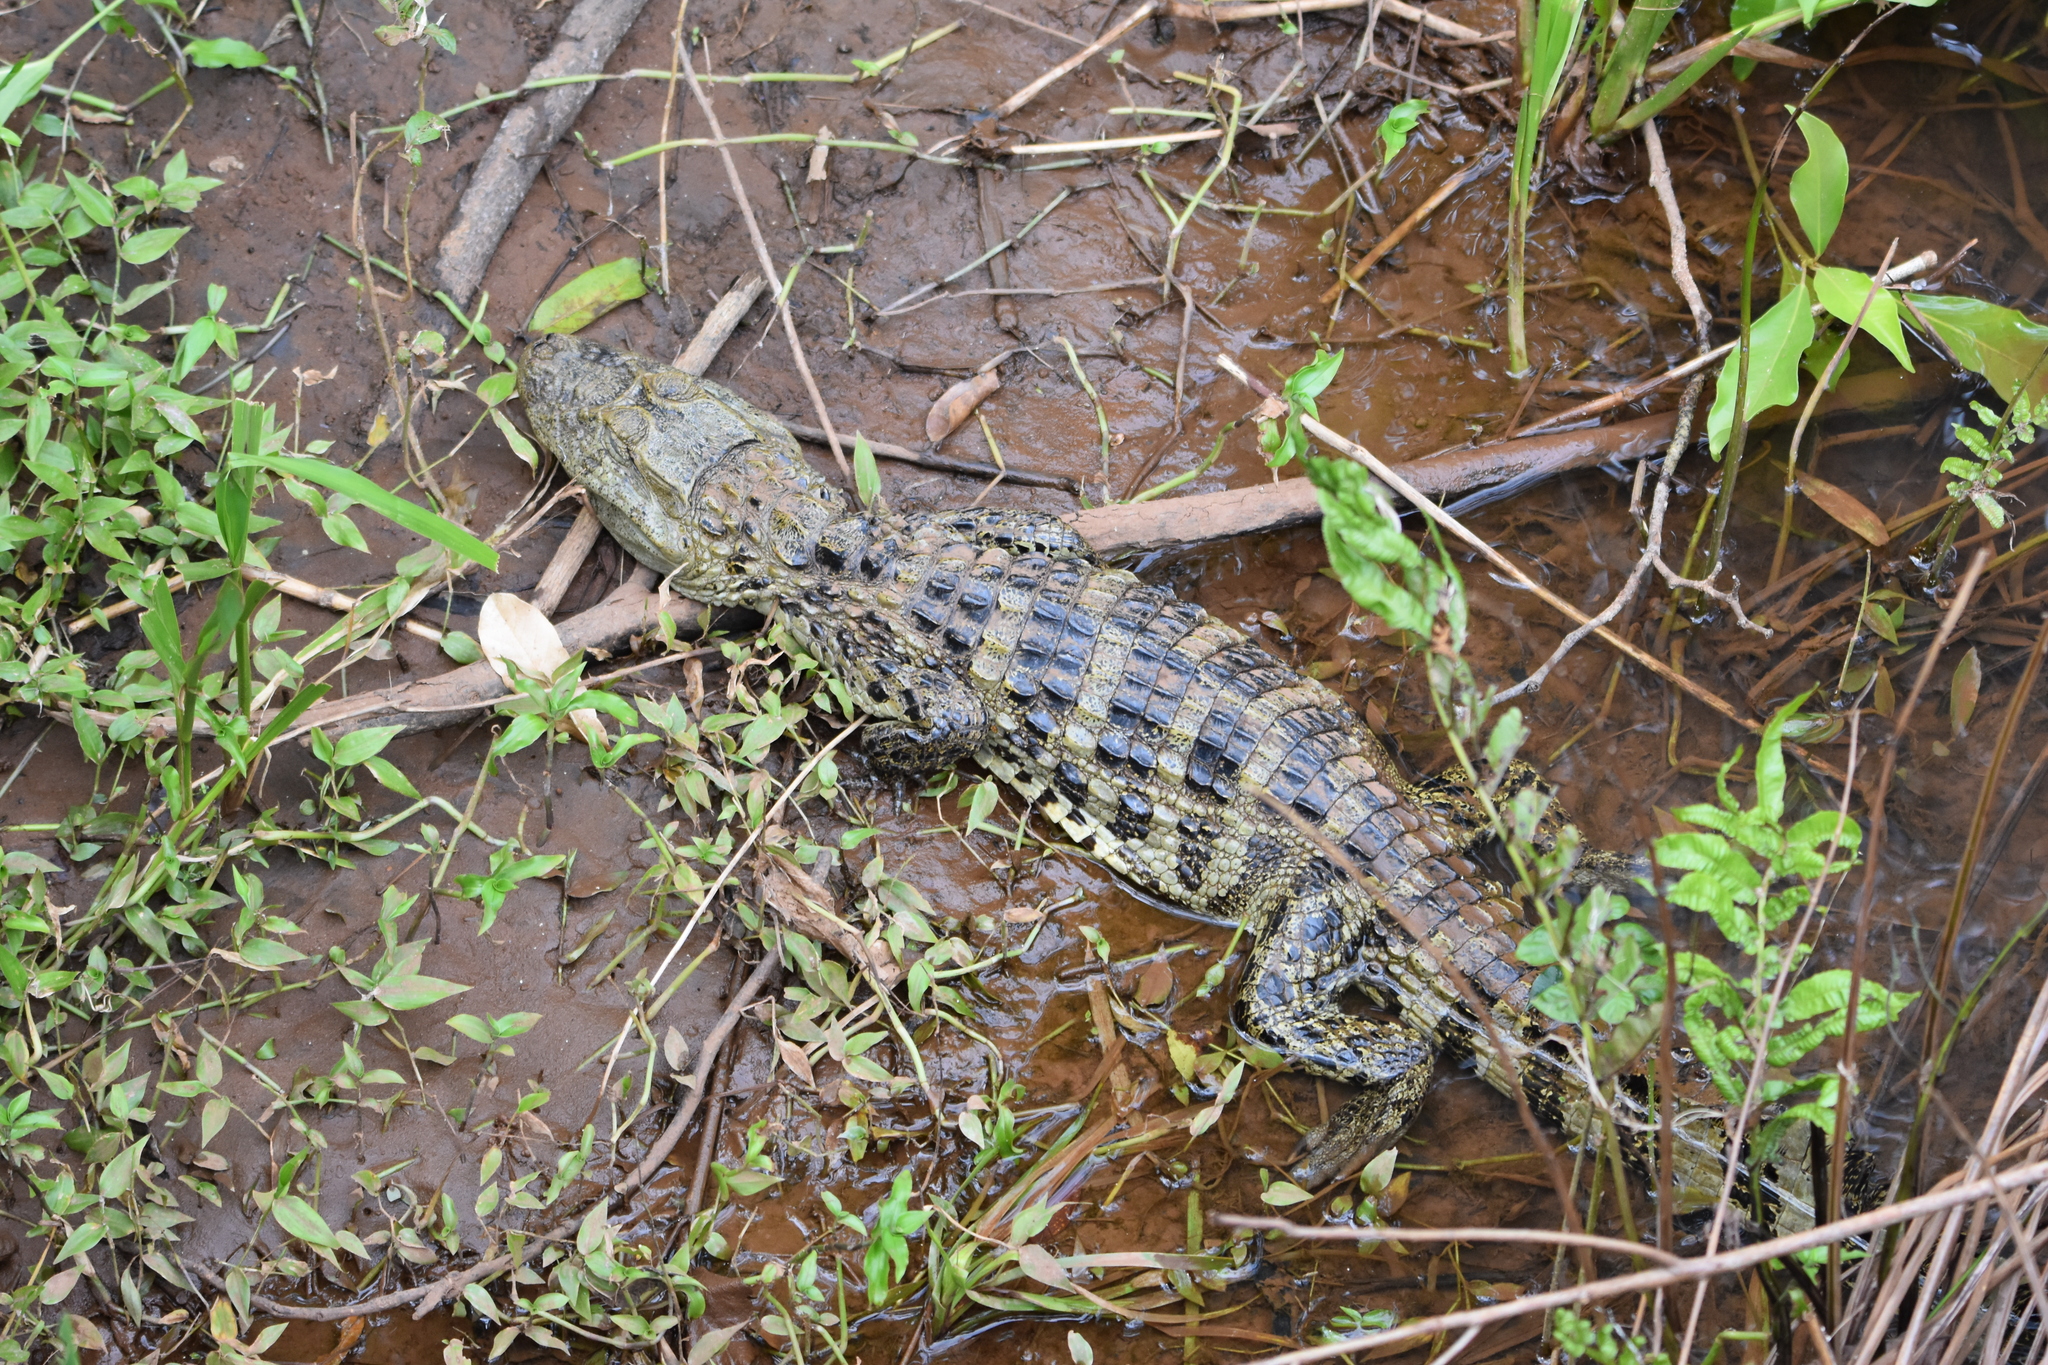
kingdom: Animalia
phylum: Chordata
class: Crocodylia
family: Alligatoridae
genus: Caiman
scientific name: Caiman latirostris
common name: Broad-snouted caiman
